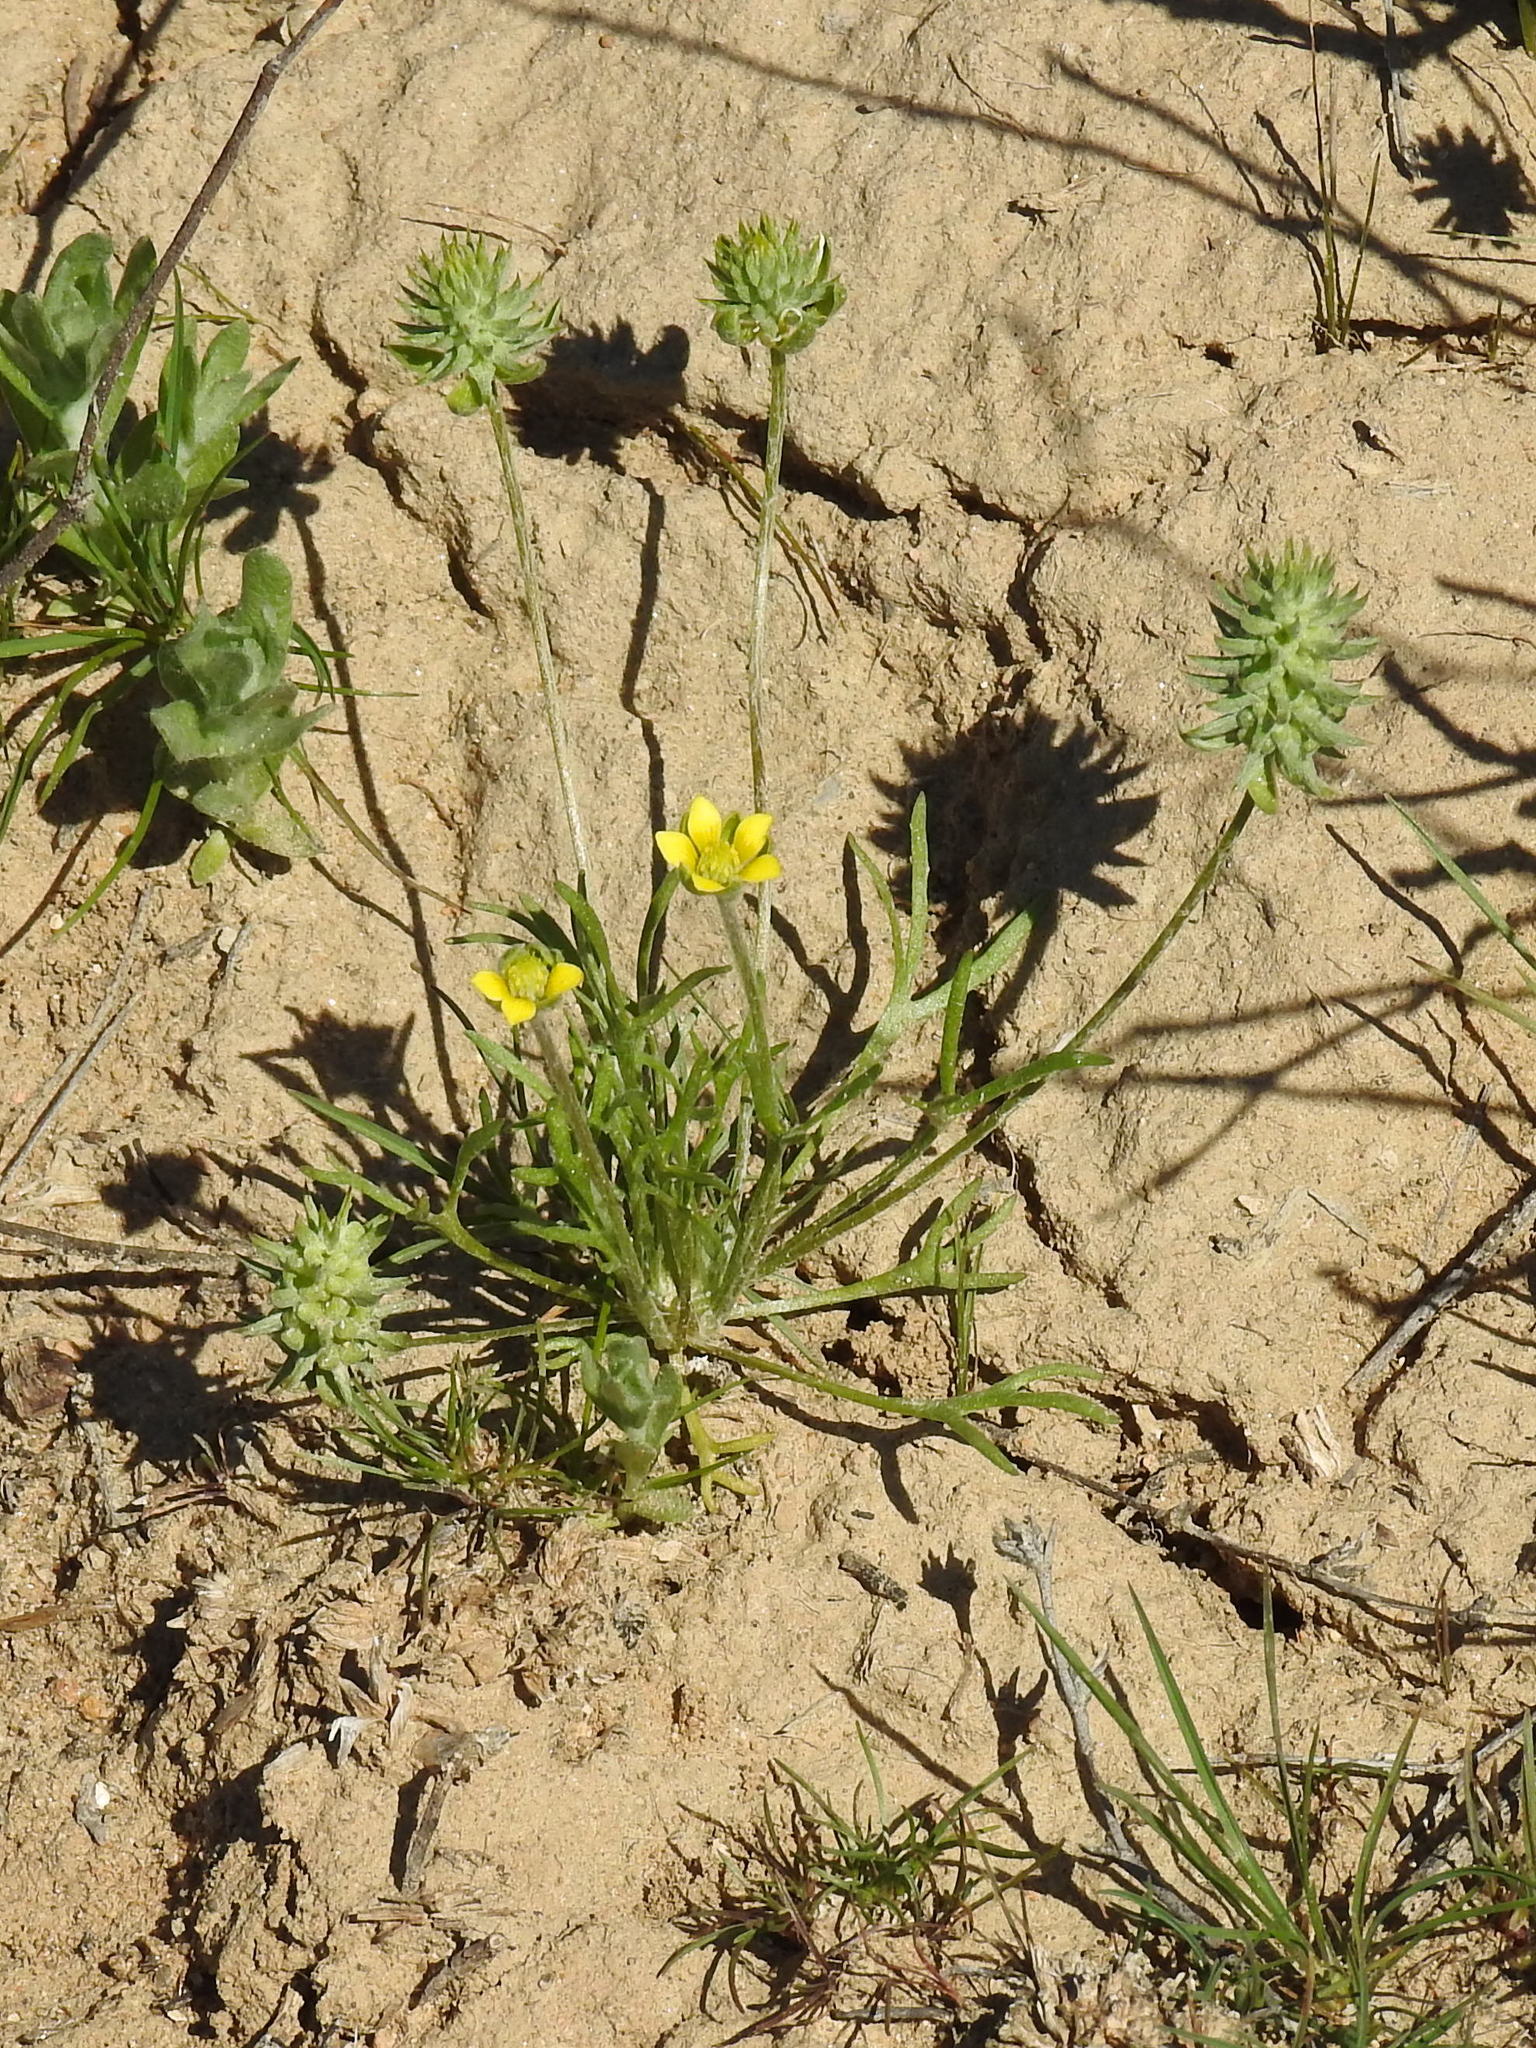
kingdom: Plantae
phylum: Tracheophyta
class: Magnoliopsida
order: Ranunculales
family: Ranunculaceae
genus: Ceratocephala
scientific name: Ceratocephala orthoceras
